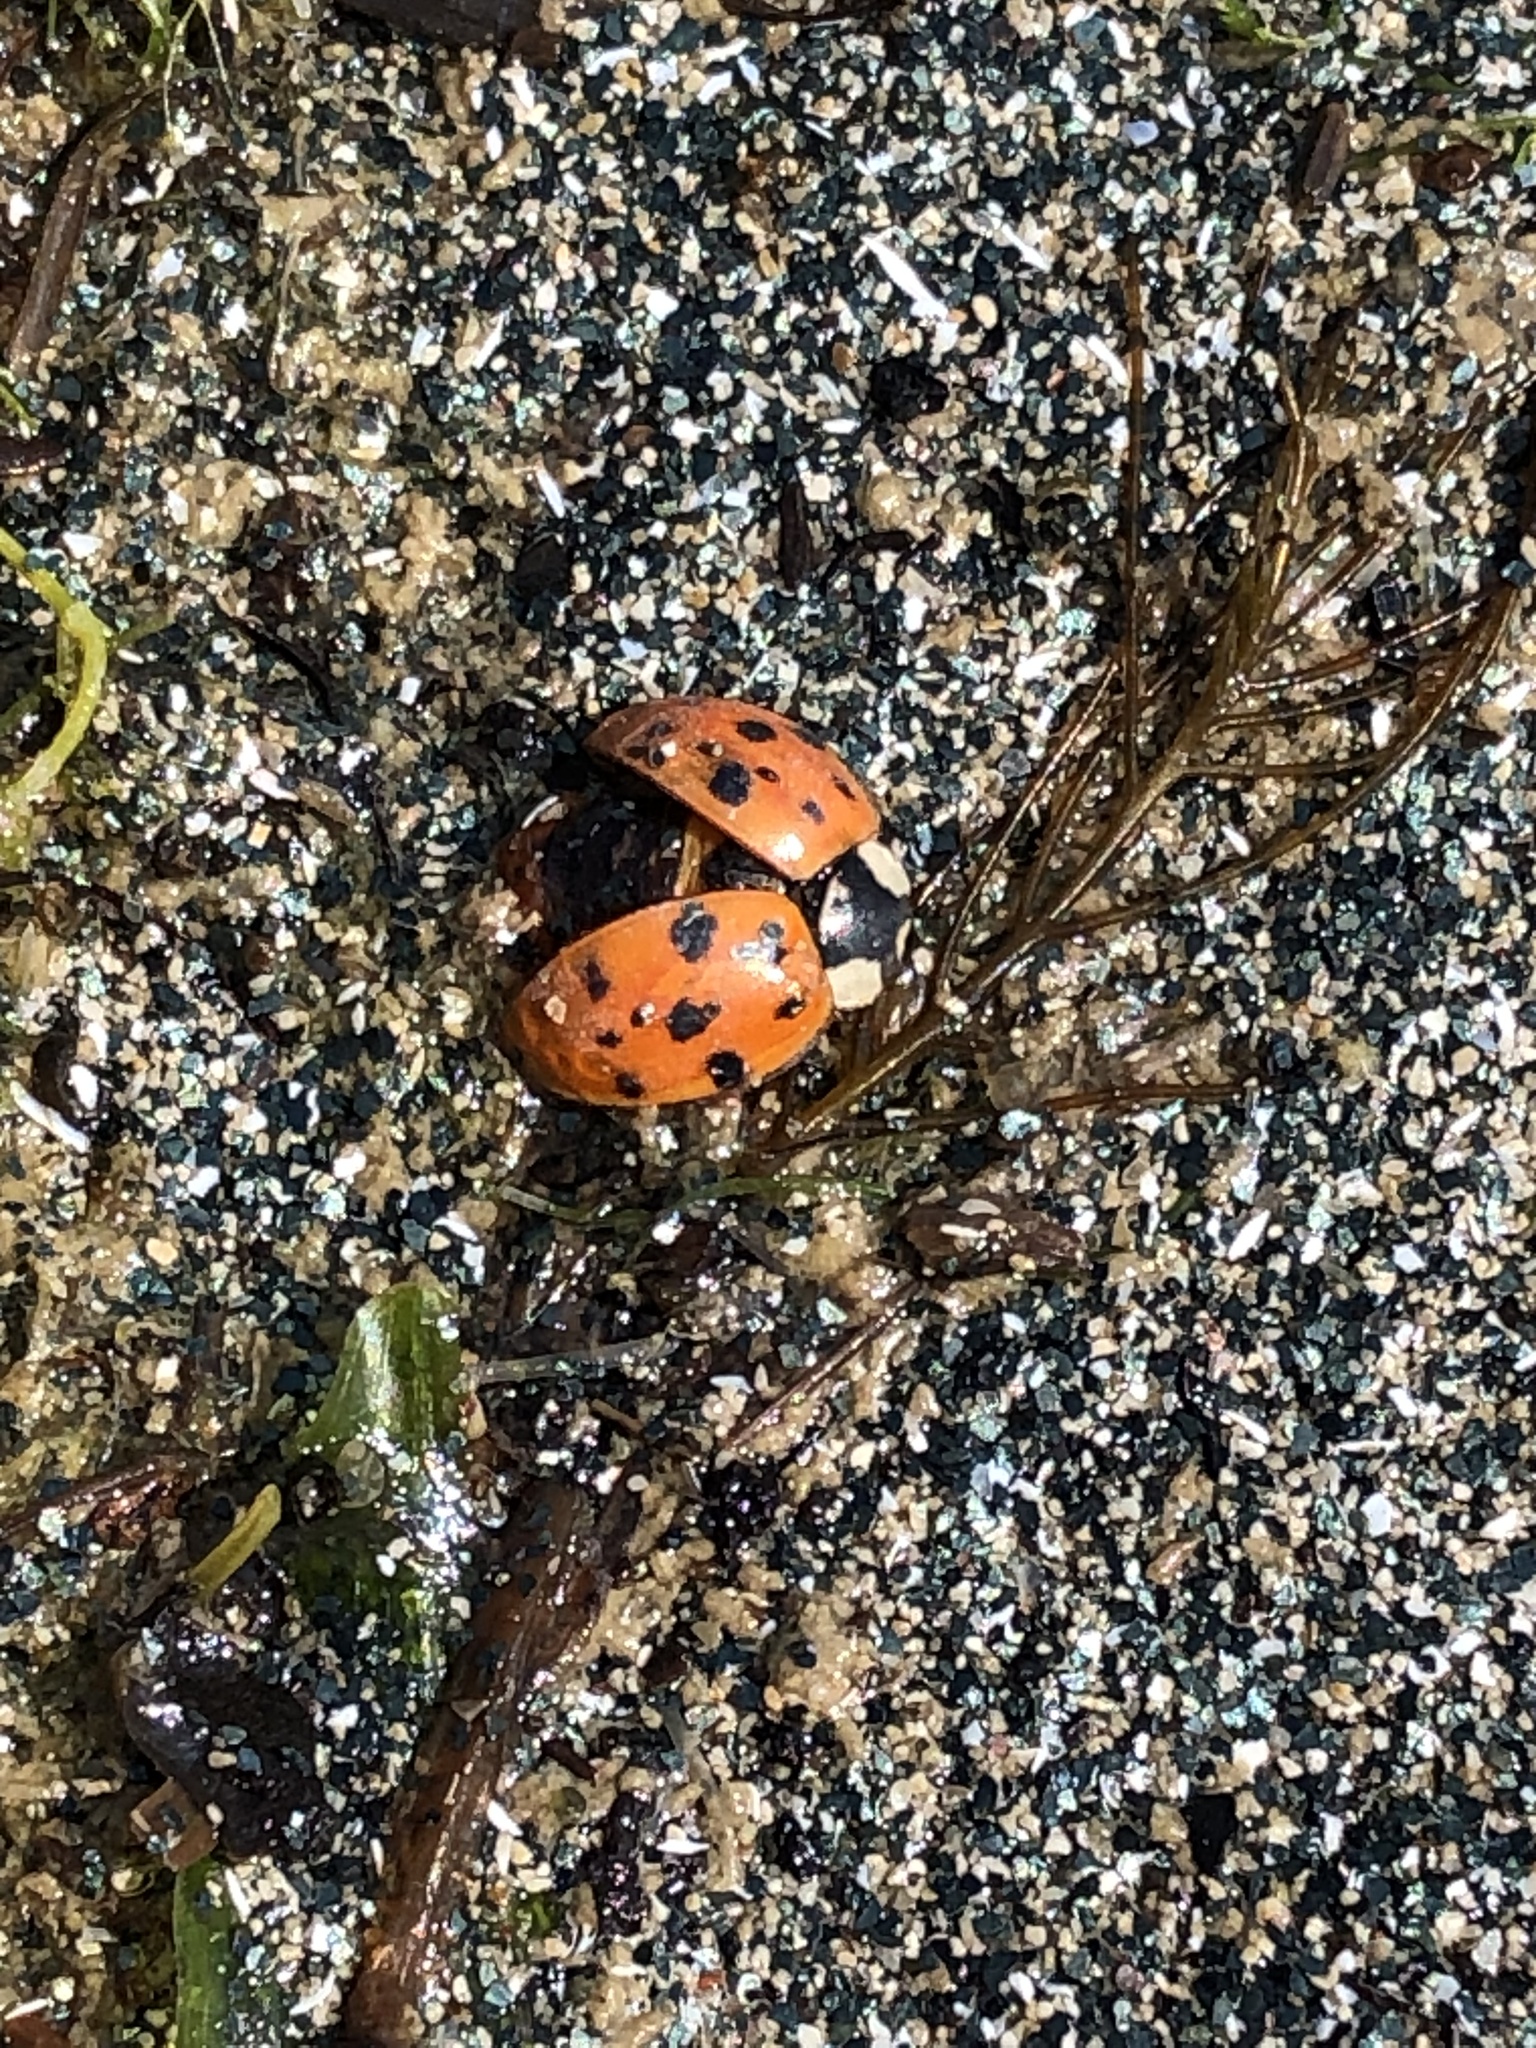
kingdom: Animalia
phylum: Arthropoda
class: Insecta
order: Coleoptera
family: Coccinellidae
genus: Harmonia
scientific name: Harmonia axyridis
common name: Harlequin ladybird
